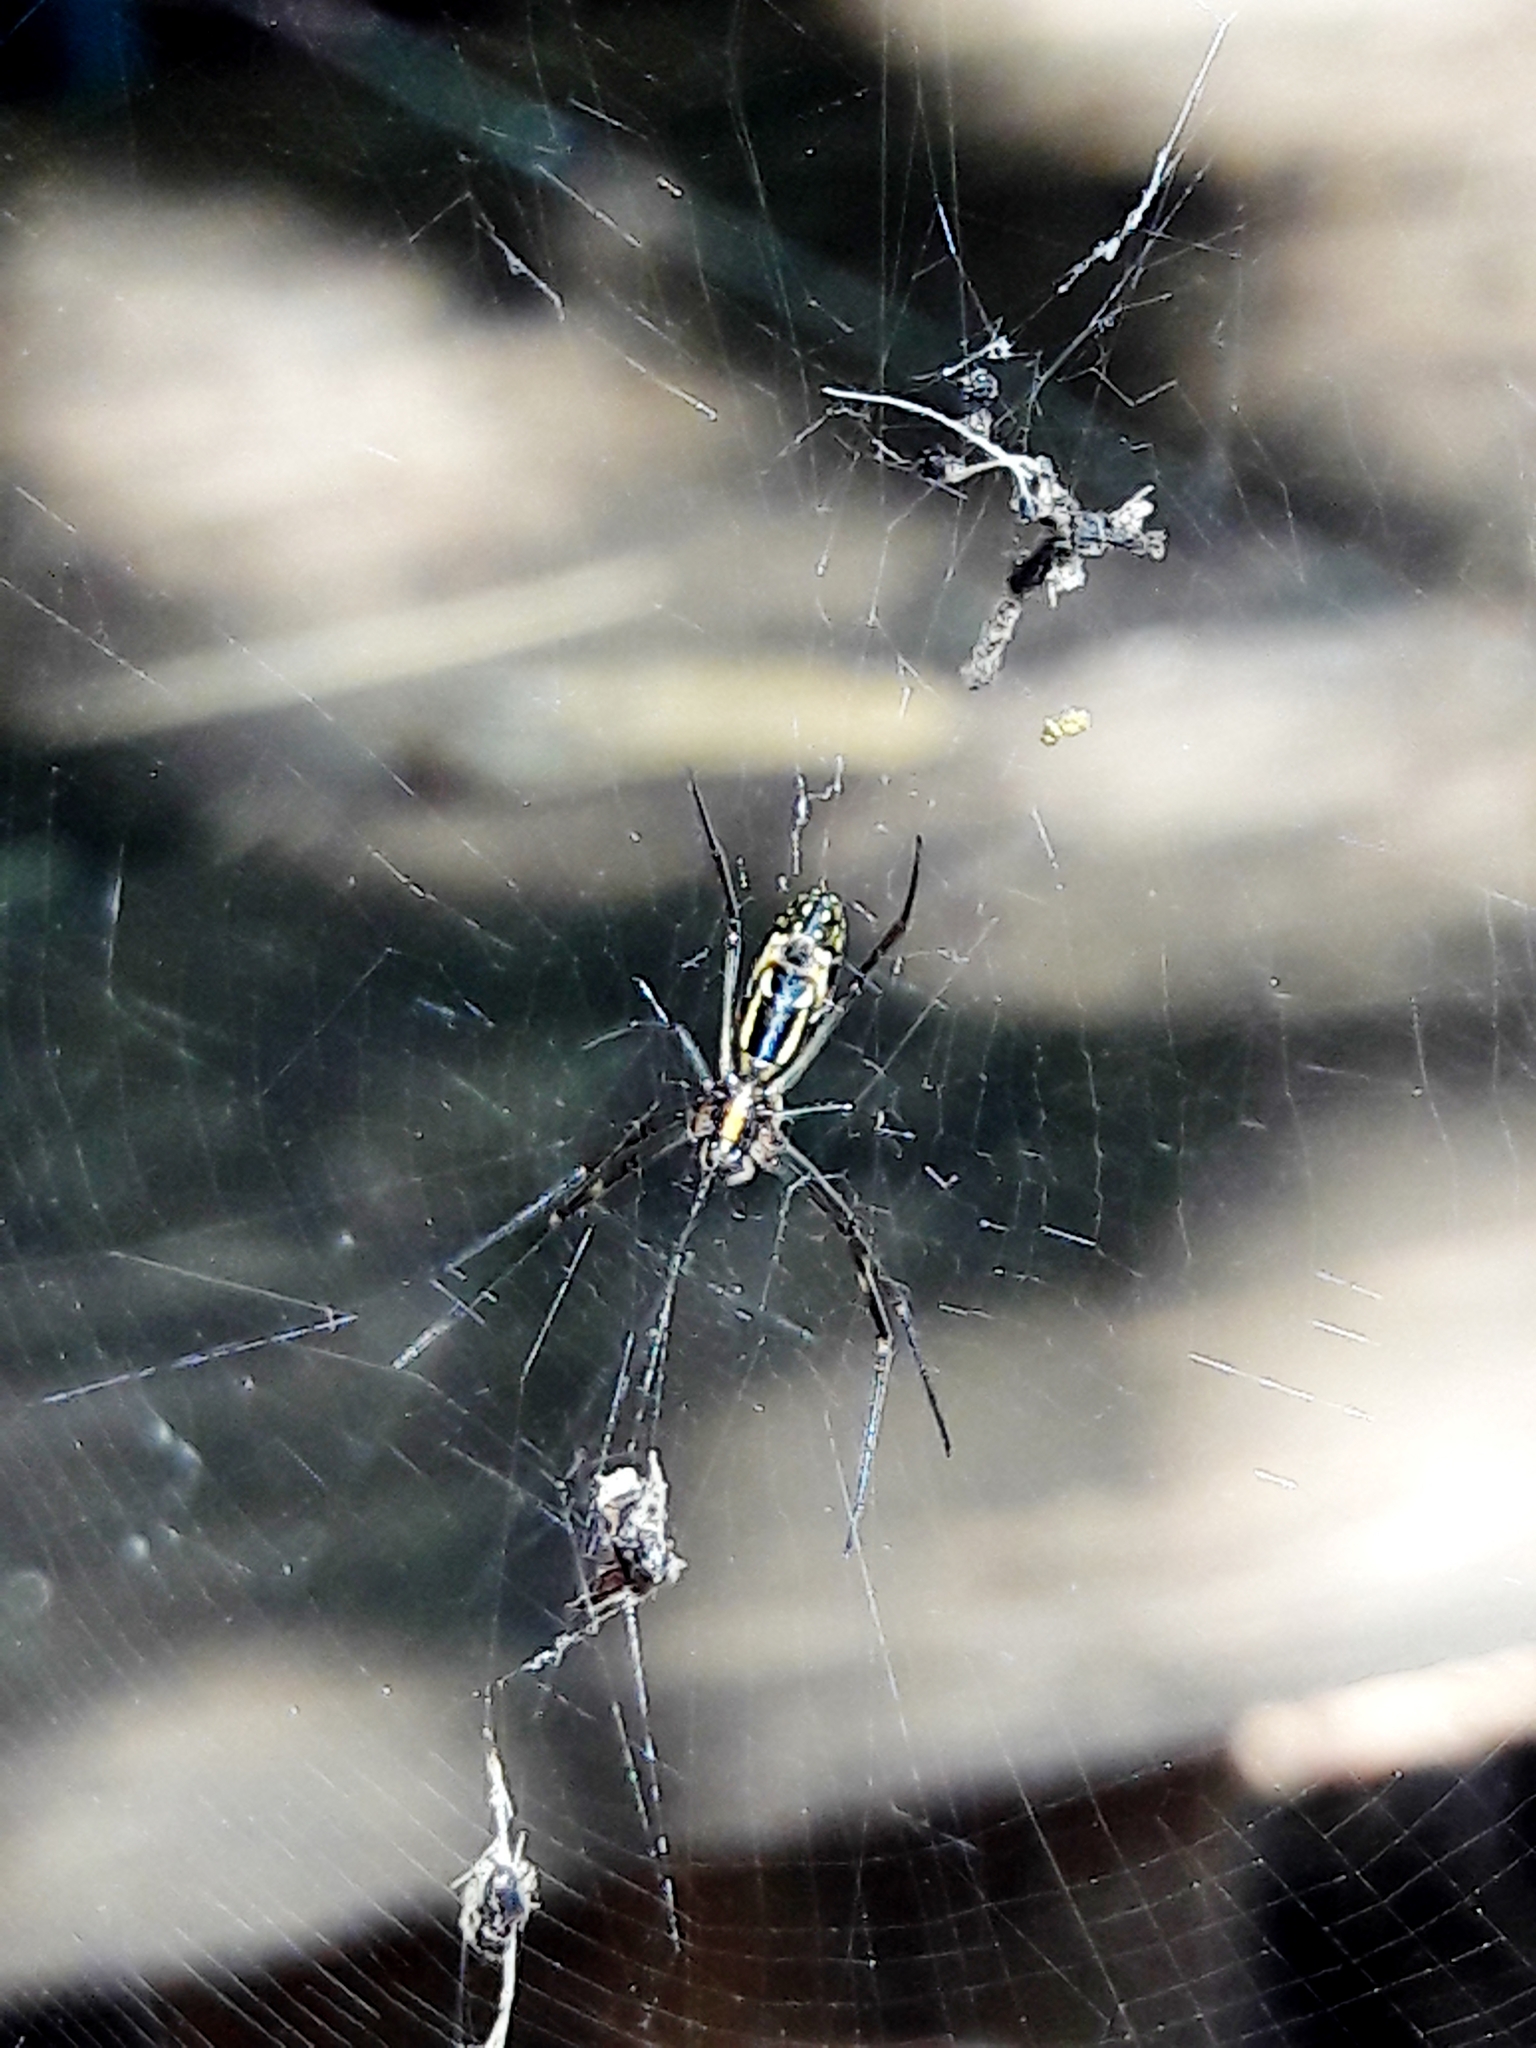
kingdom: Animalia
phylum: Arthropoda
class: Arachnida
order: Araneae
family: Araneidae
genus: Trichonephila
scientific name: Trichonephila clavipes
